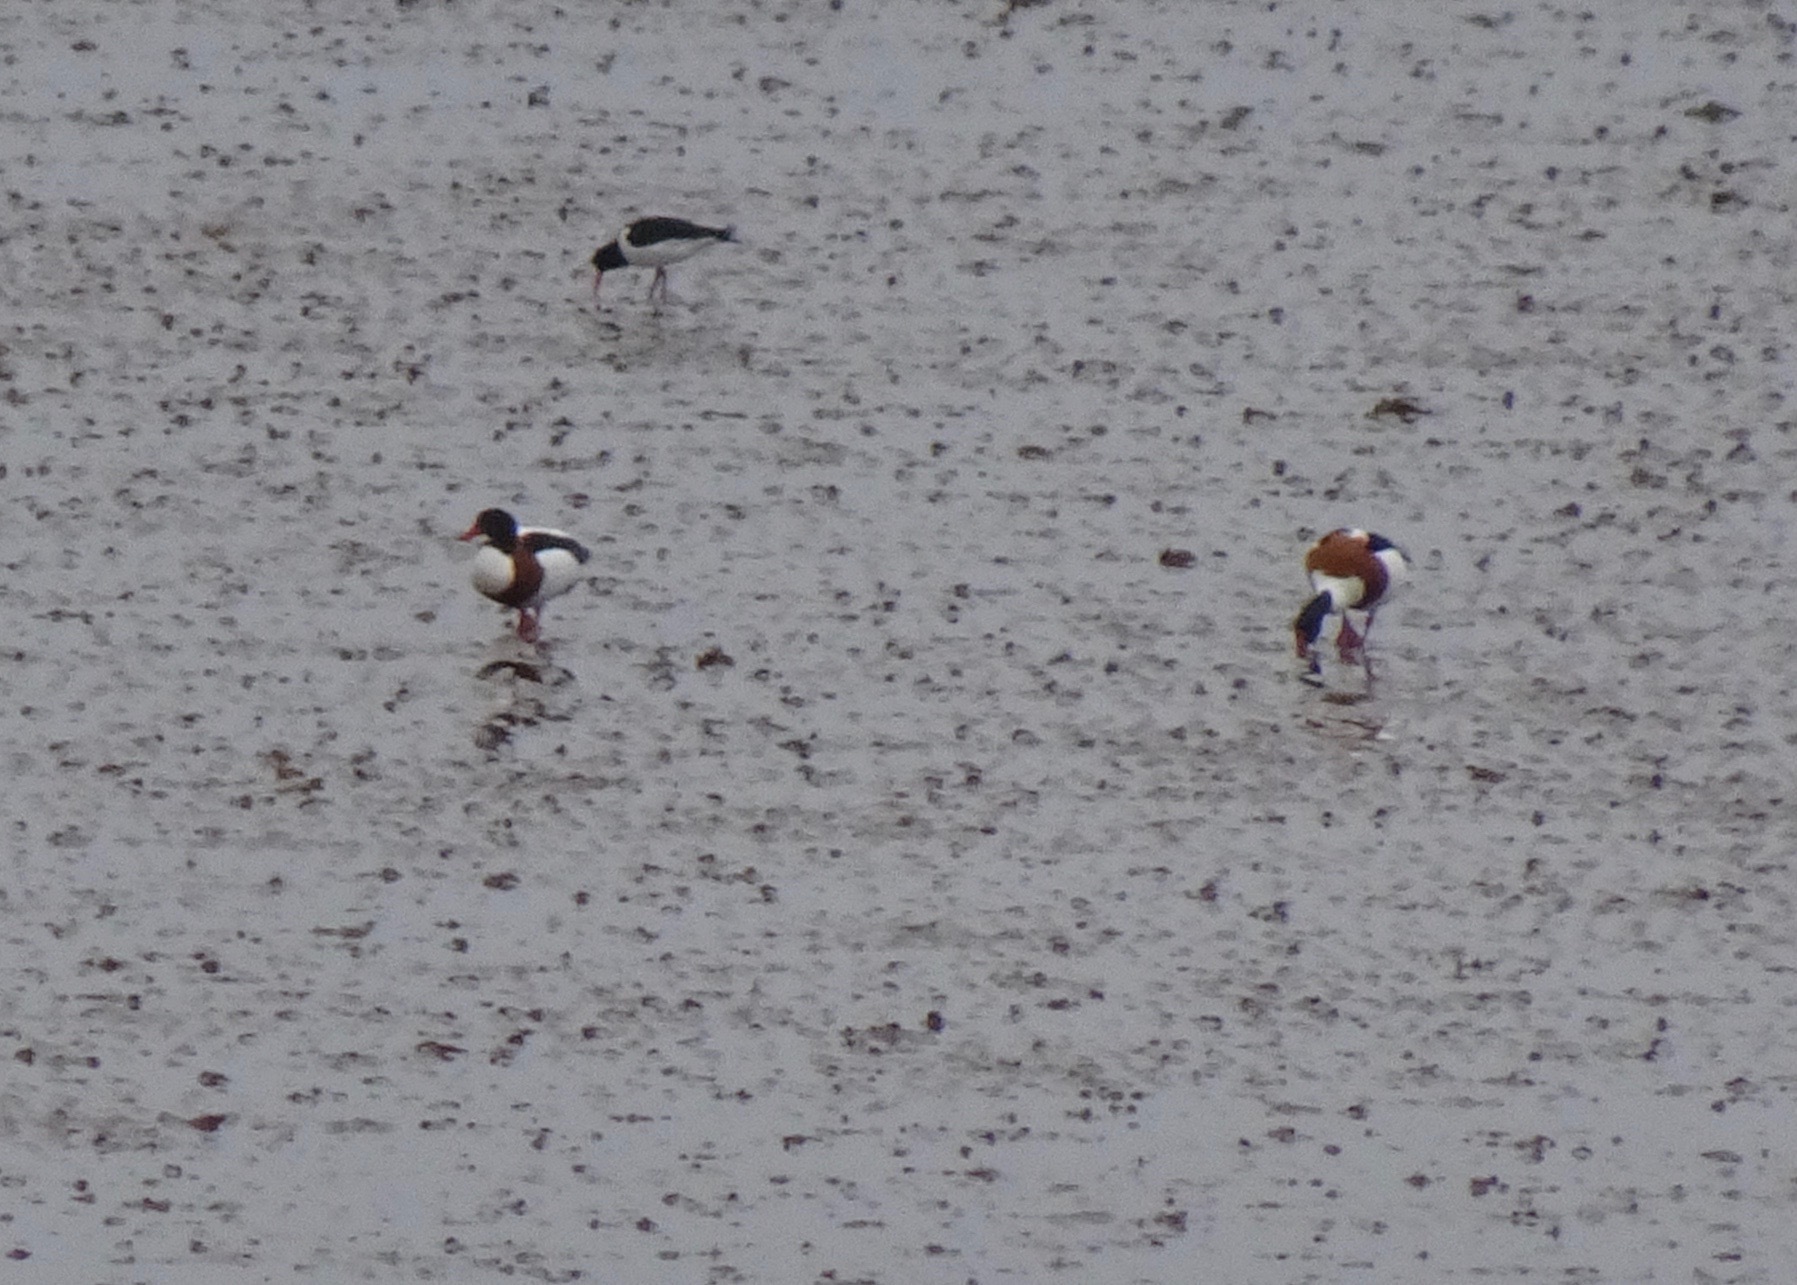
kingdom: Animalia
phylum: Chordata
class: Aves
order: Anseriformes
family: Anatidae
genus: Tadorna
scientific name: Tadorna tadorna
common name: Common shelduck
